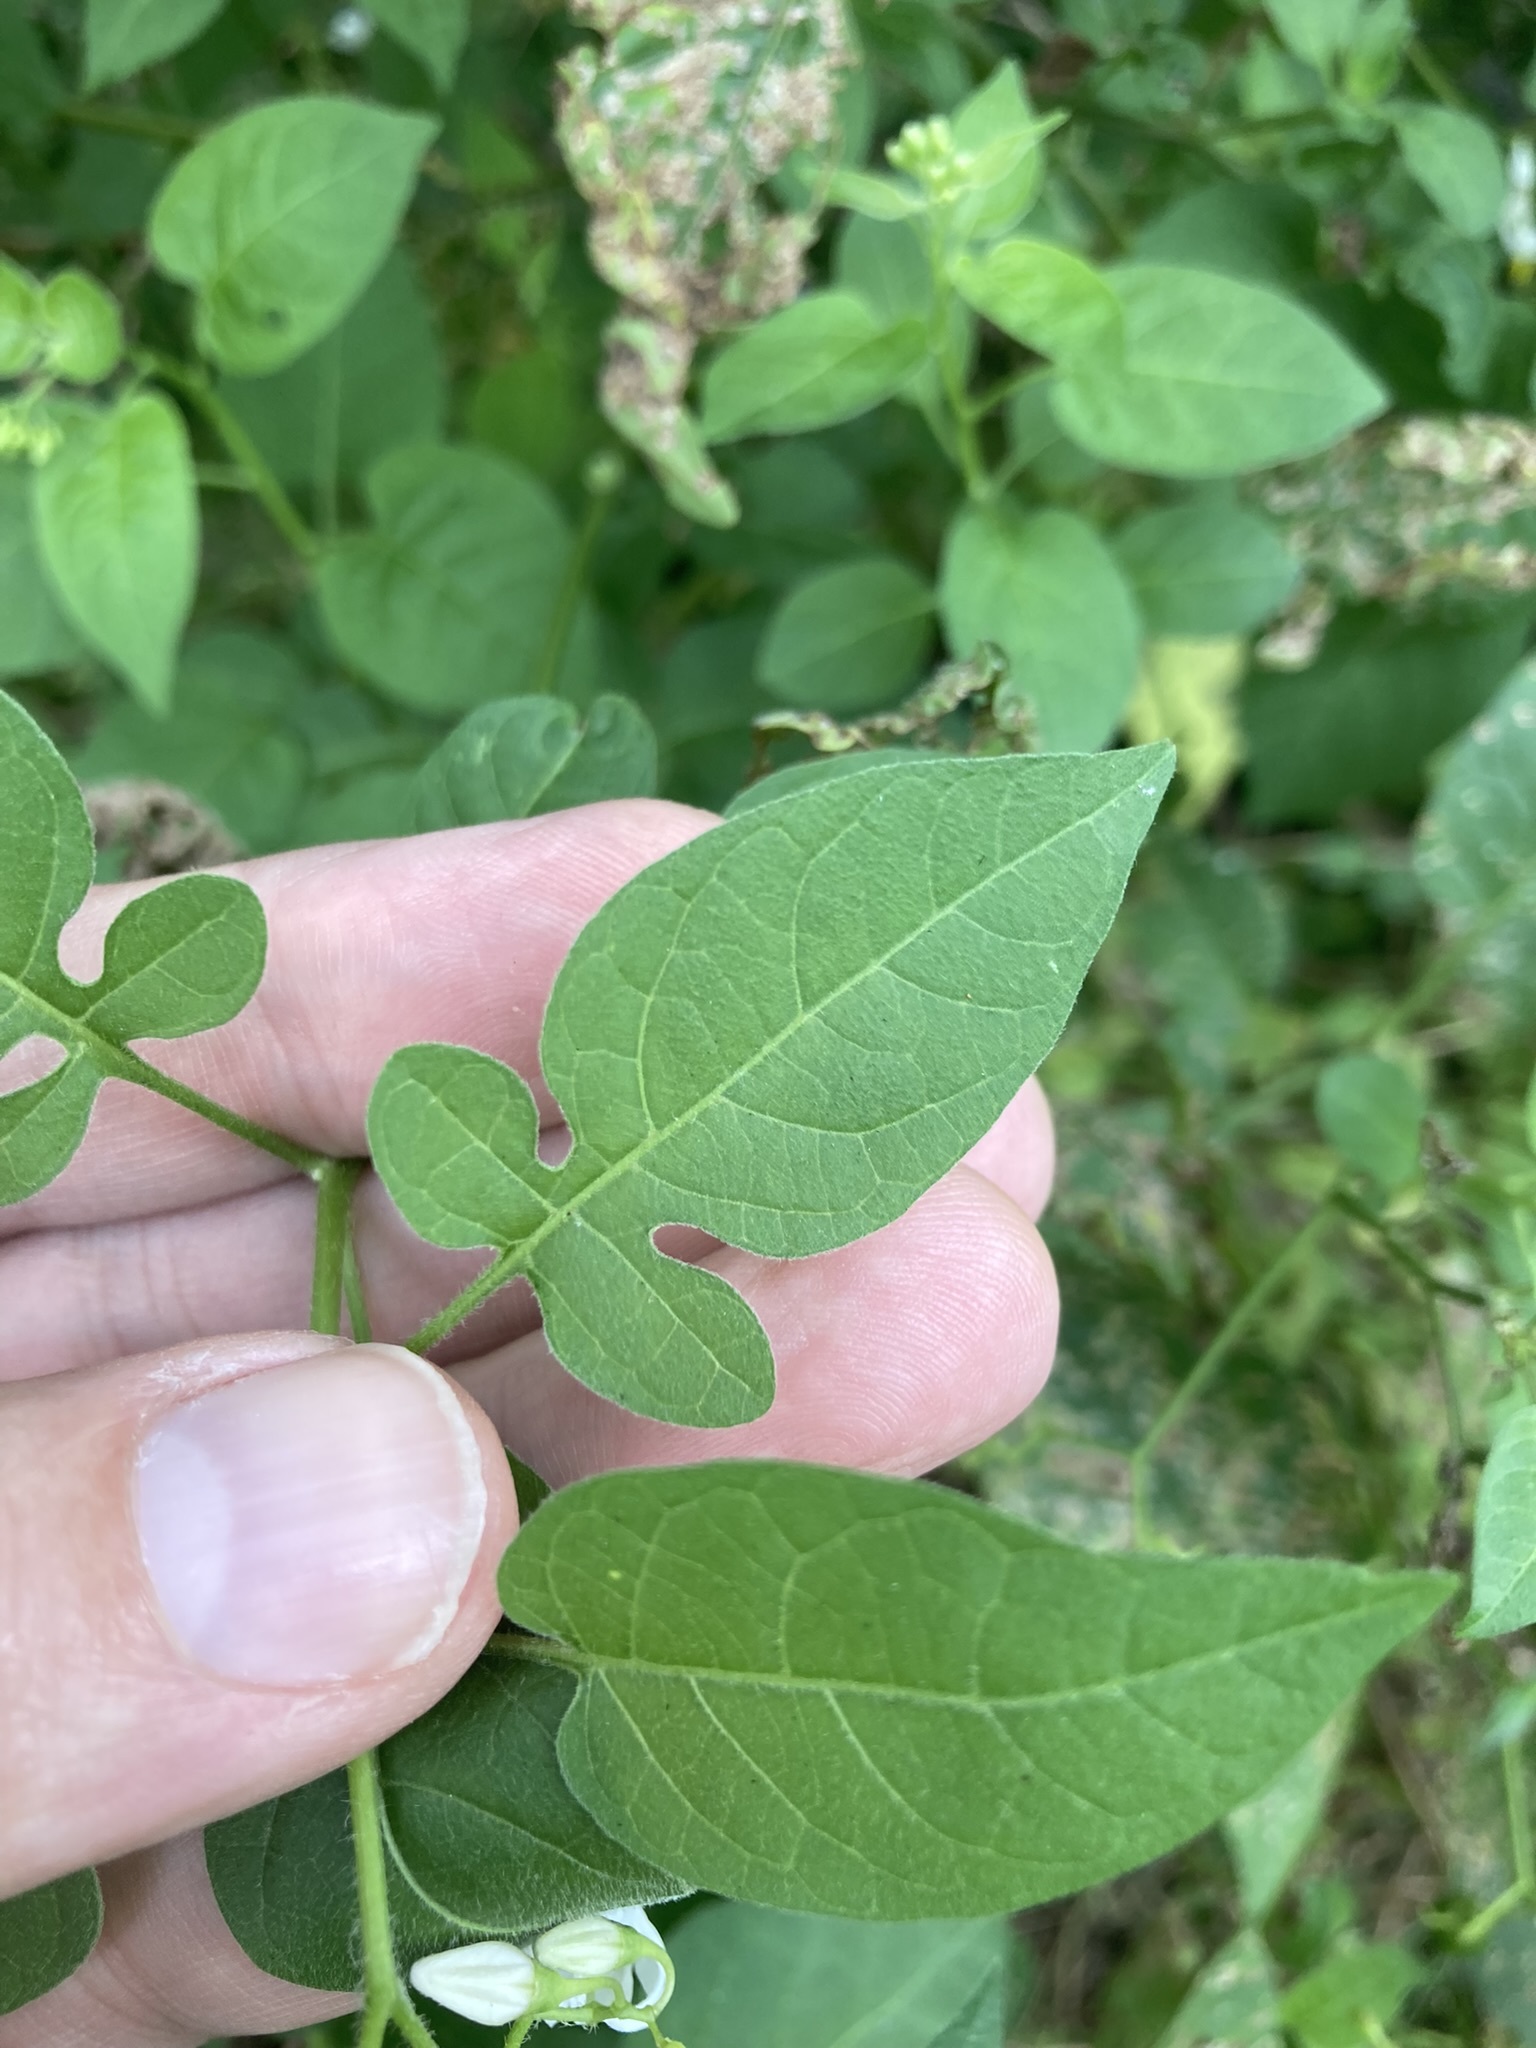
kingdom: Plantae
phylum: Tracheophyta
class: Magnoliopsida
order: Solanales
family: Solanaceae
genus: Solanum
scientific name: Solanum dulcamara
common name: Climbing nightshade
